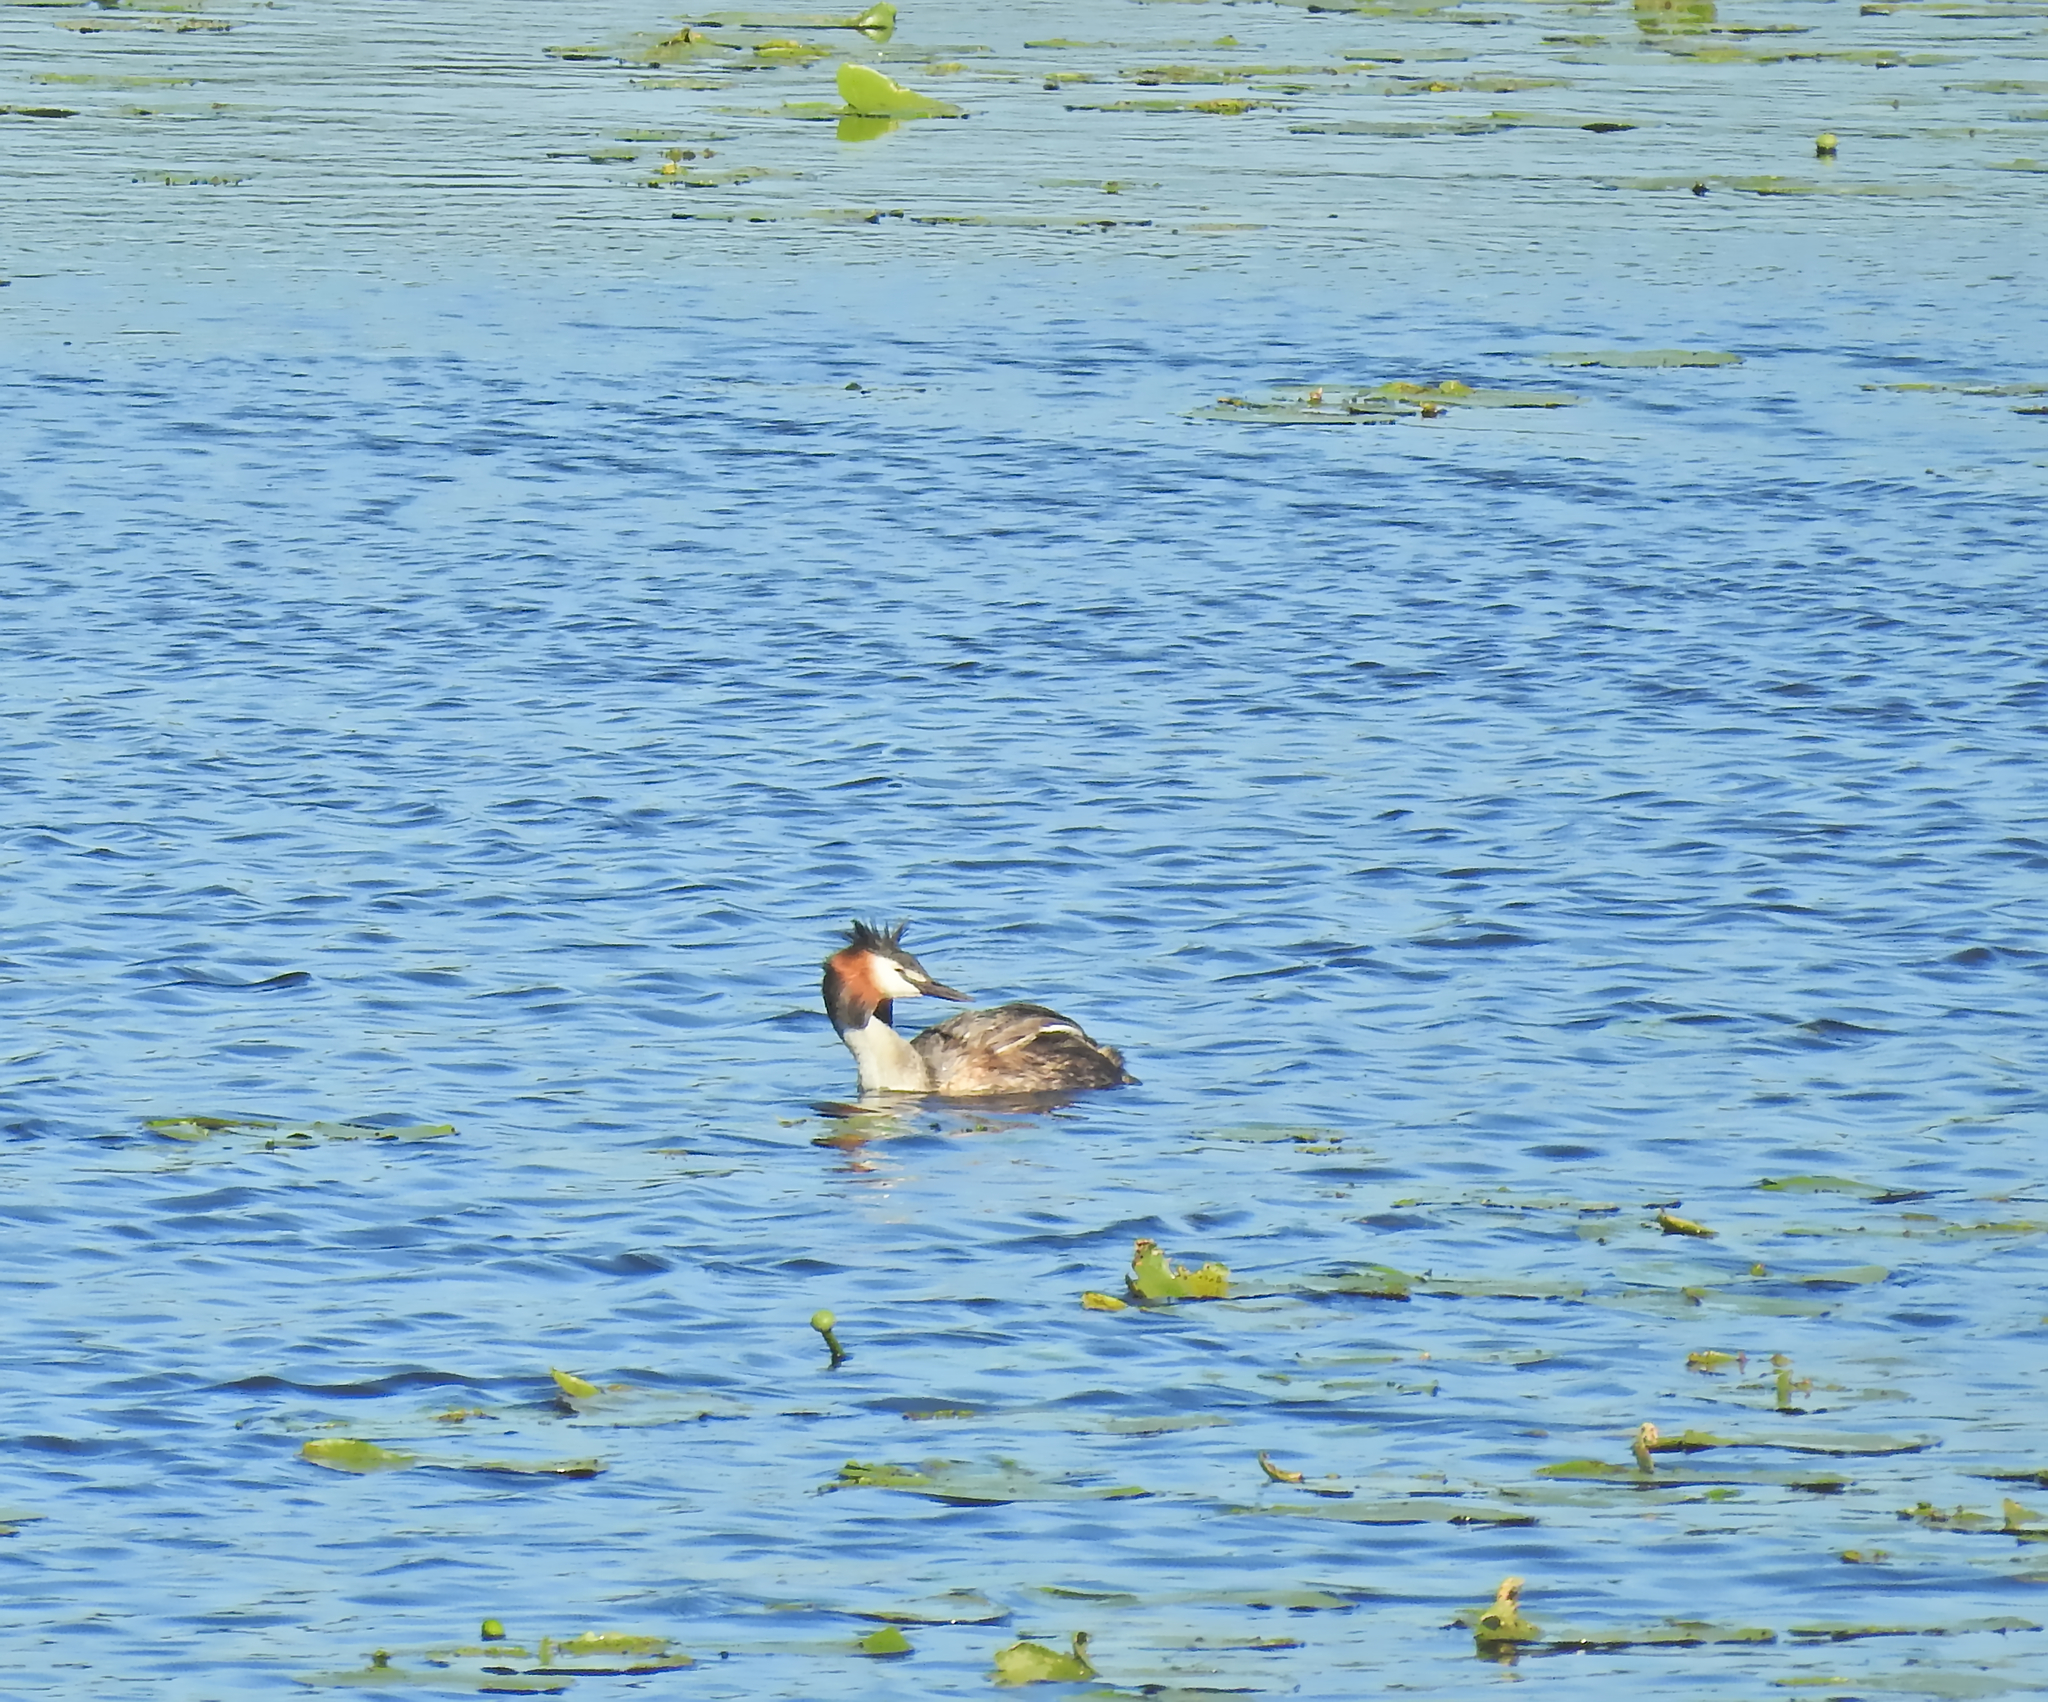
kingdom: Animalia
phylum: Chordata
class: Aves
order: Podicipediformes
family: Podicipedidae
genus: Podiceps
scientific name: Podiceps cristatus
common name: Great crested grebe
